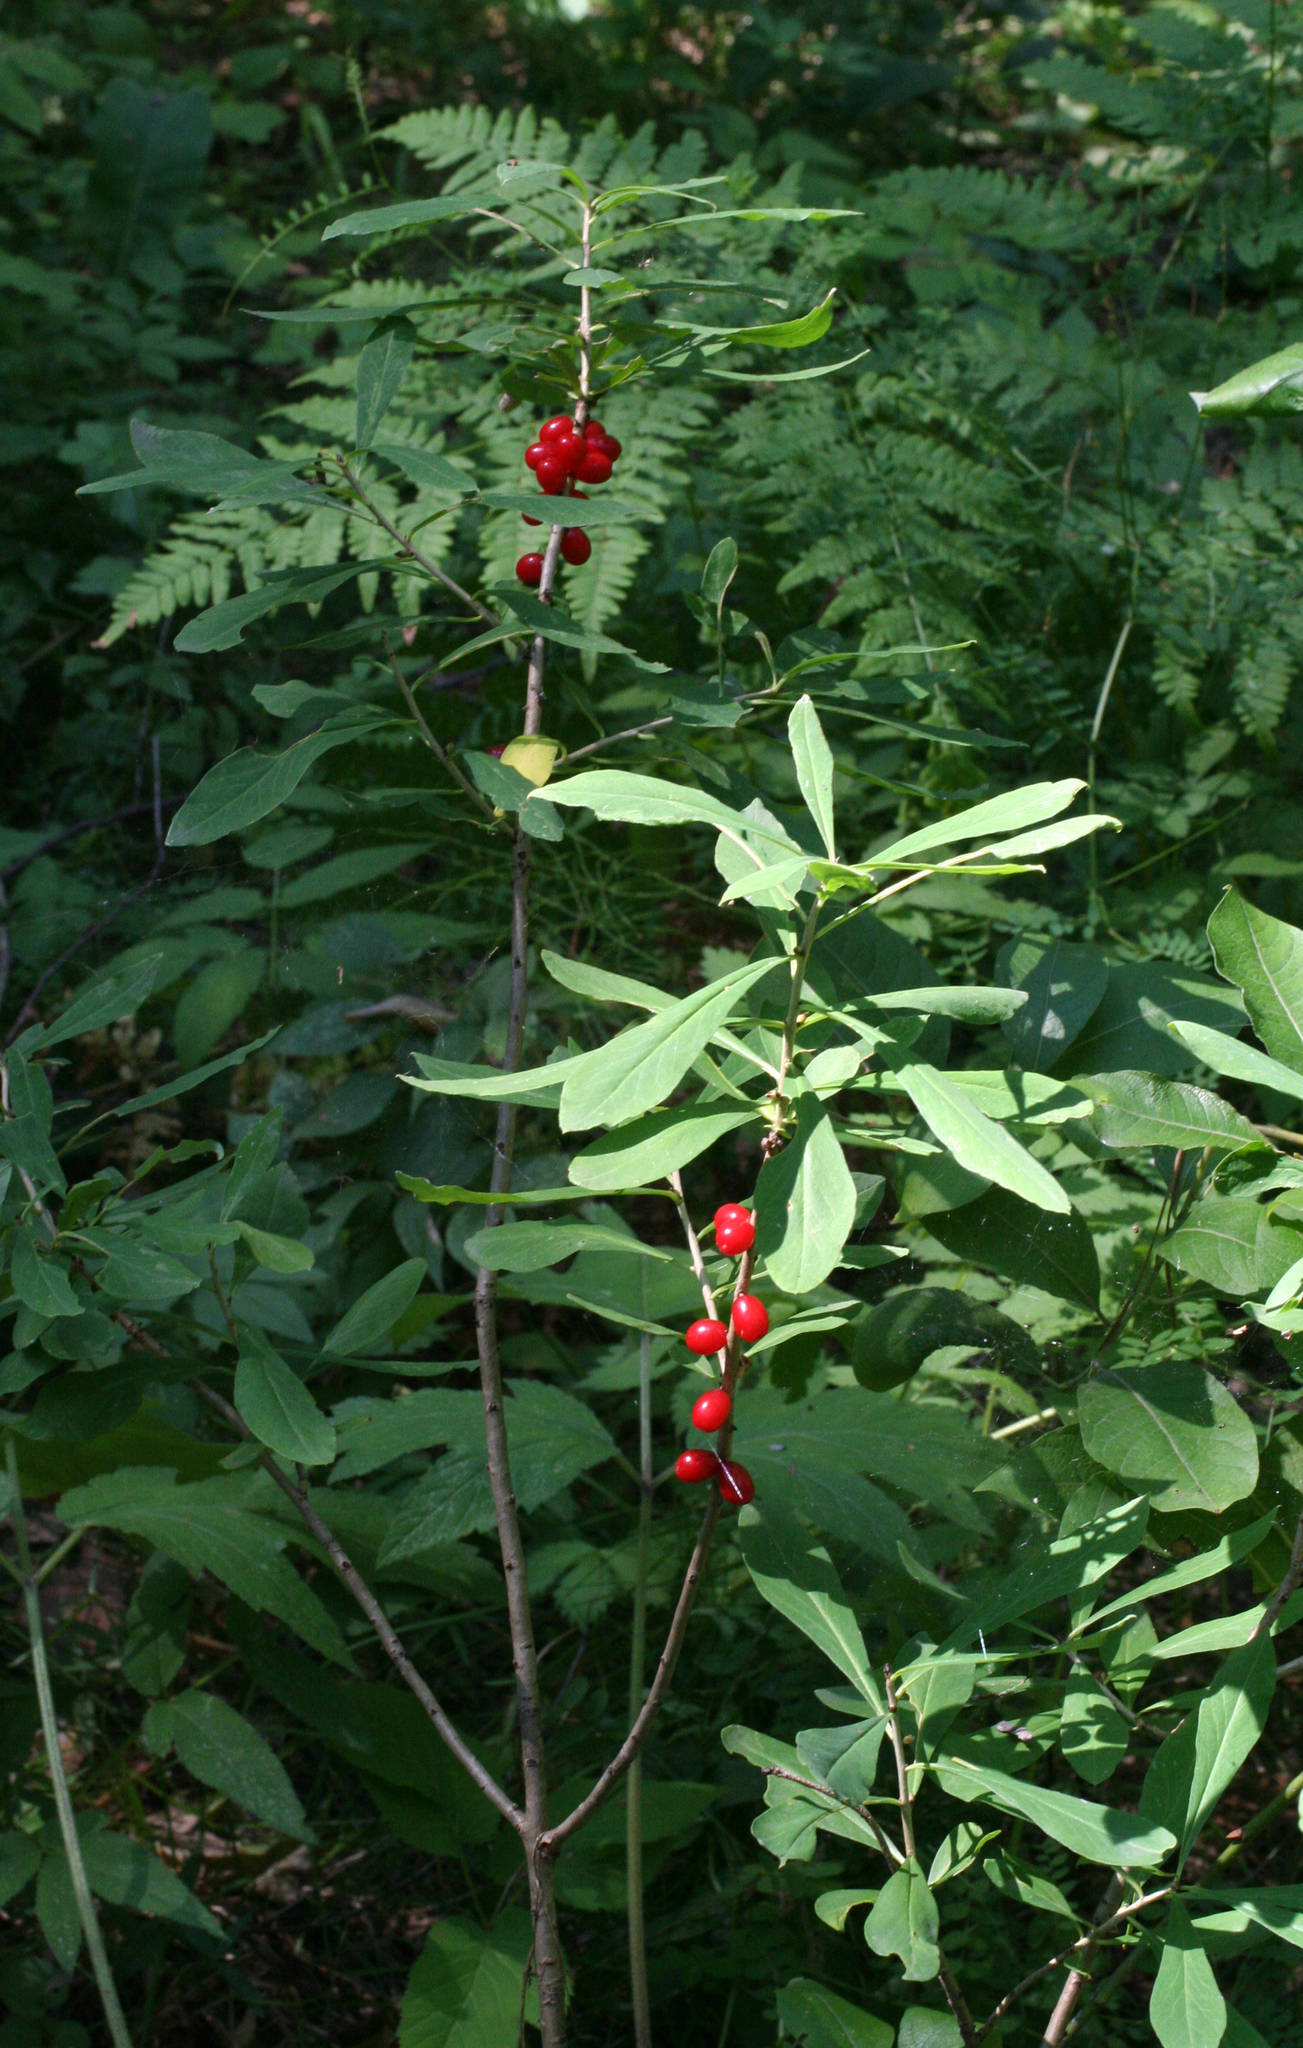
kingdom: Plantae
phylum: Tracheophyta
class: Magnoliopsida
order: Malvales
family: Thymelaeaceae
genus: Daphne
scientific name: Daphne mezereum
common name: Mezereon
